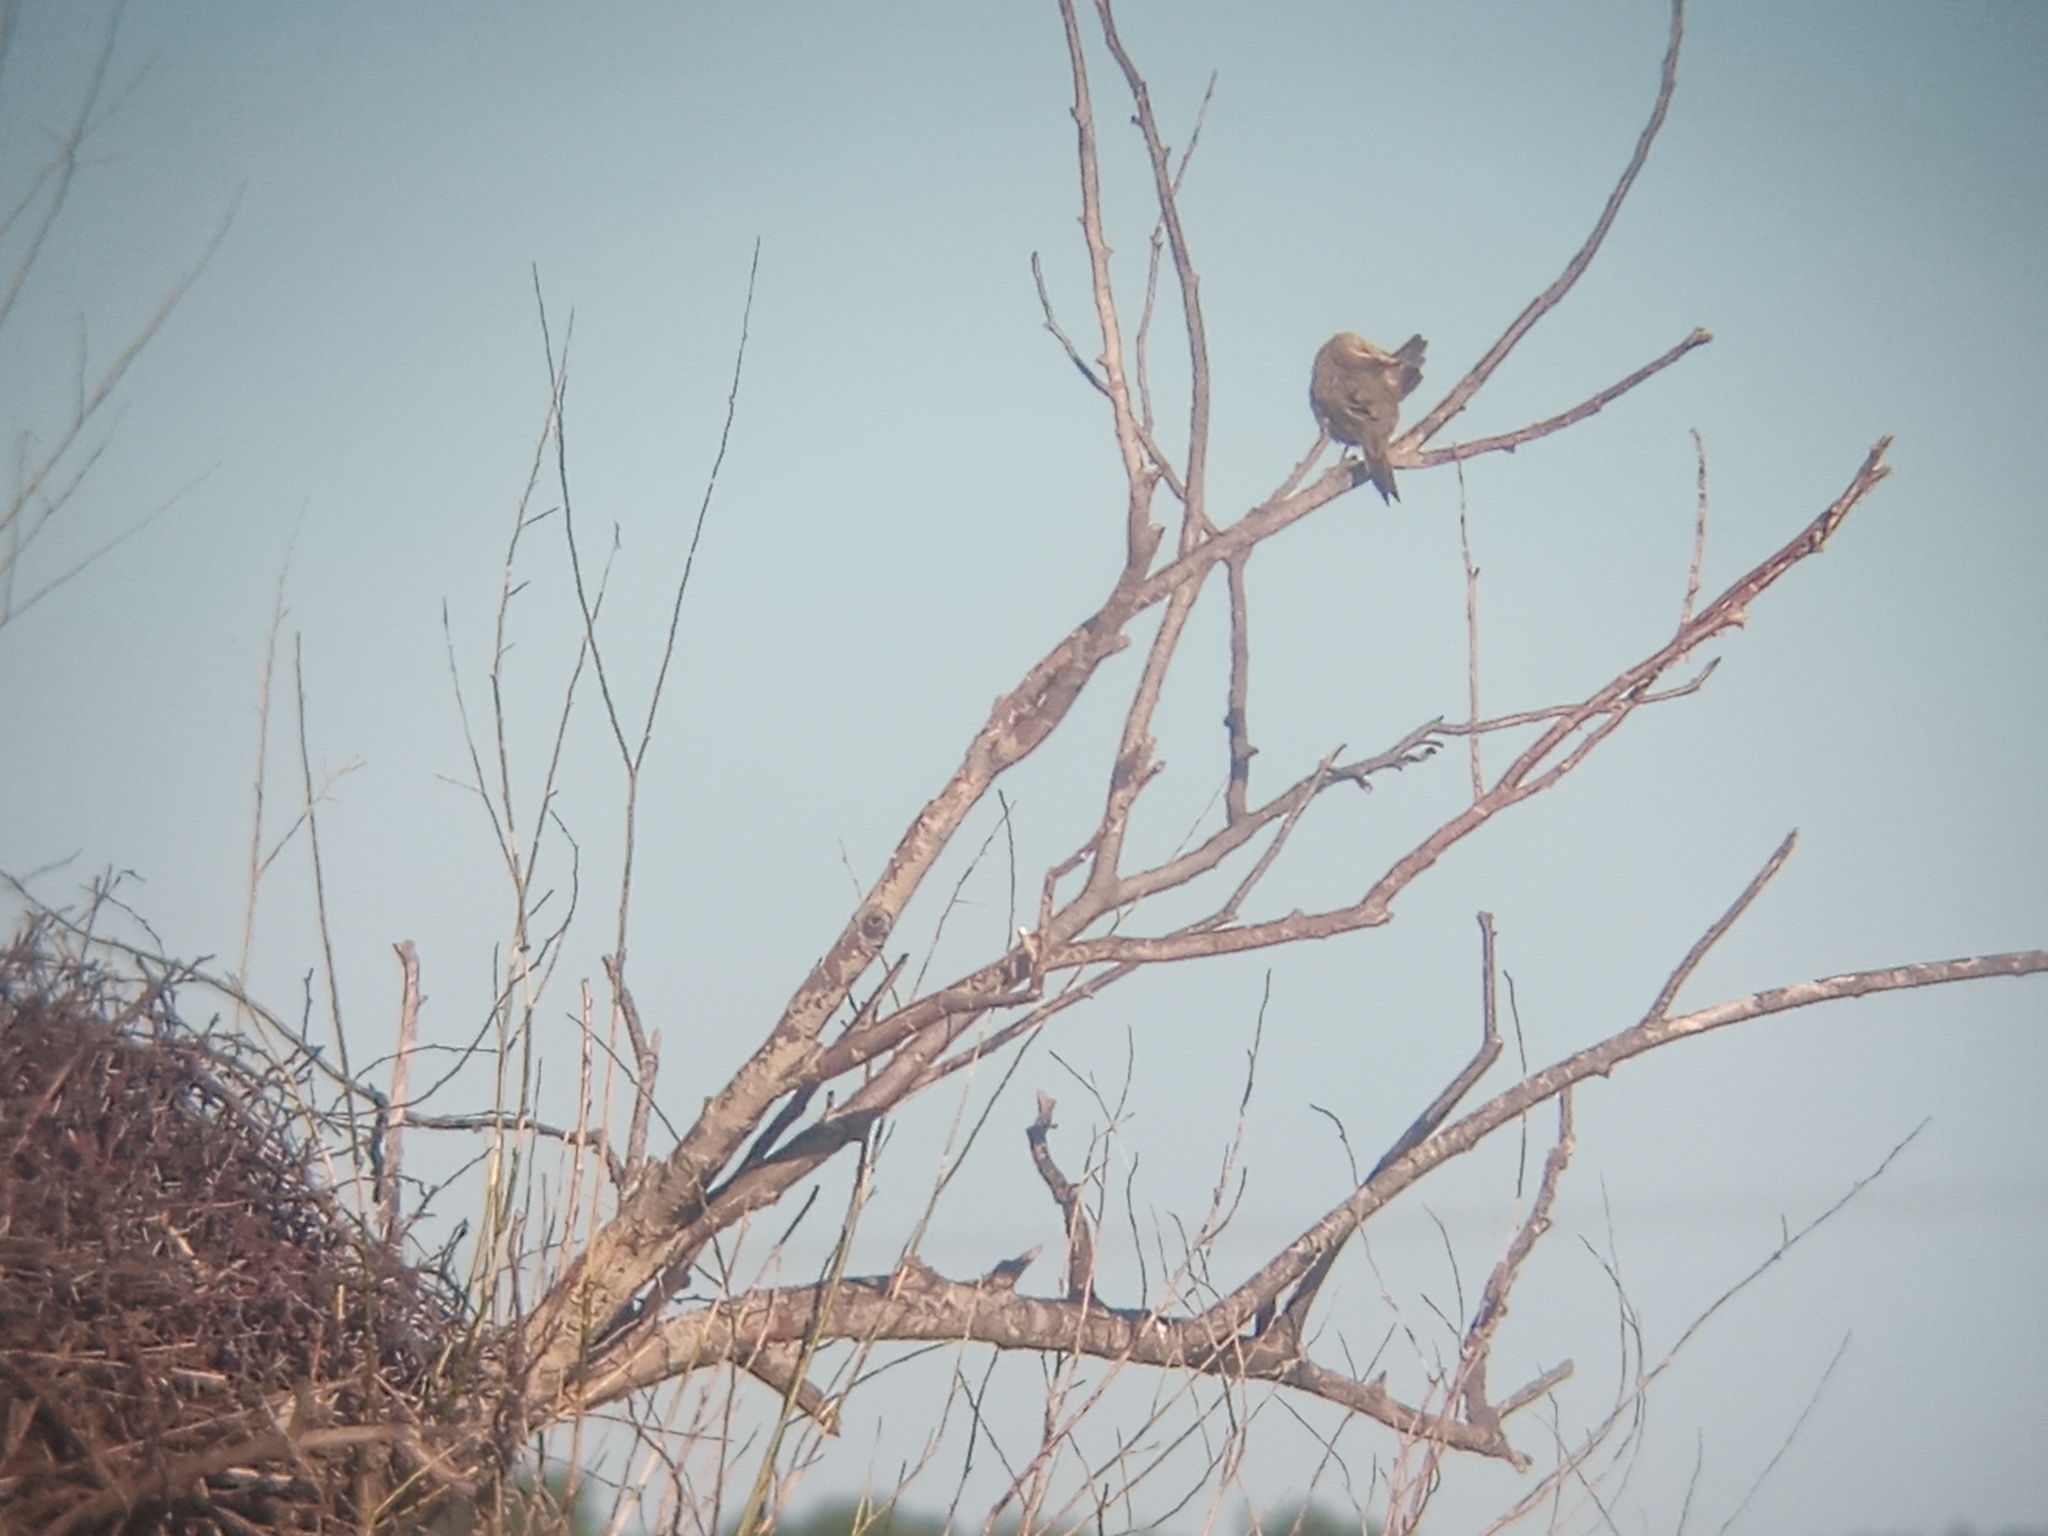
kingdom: Animalia
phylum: Chordata
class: Aves
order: Passeriformes
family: Furnariidae
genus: Anumbius
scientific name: Anumbius annumbi
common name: Firewood-gatherer
